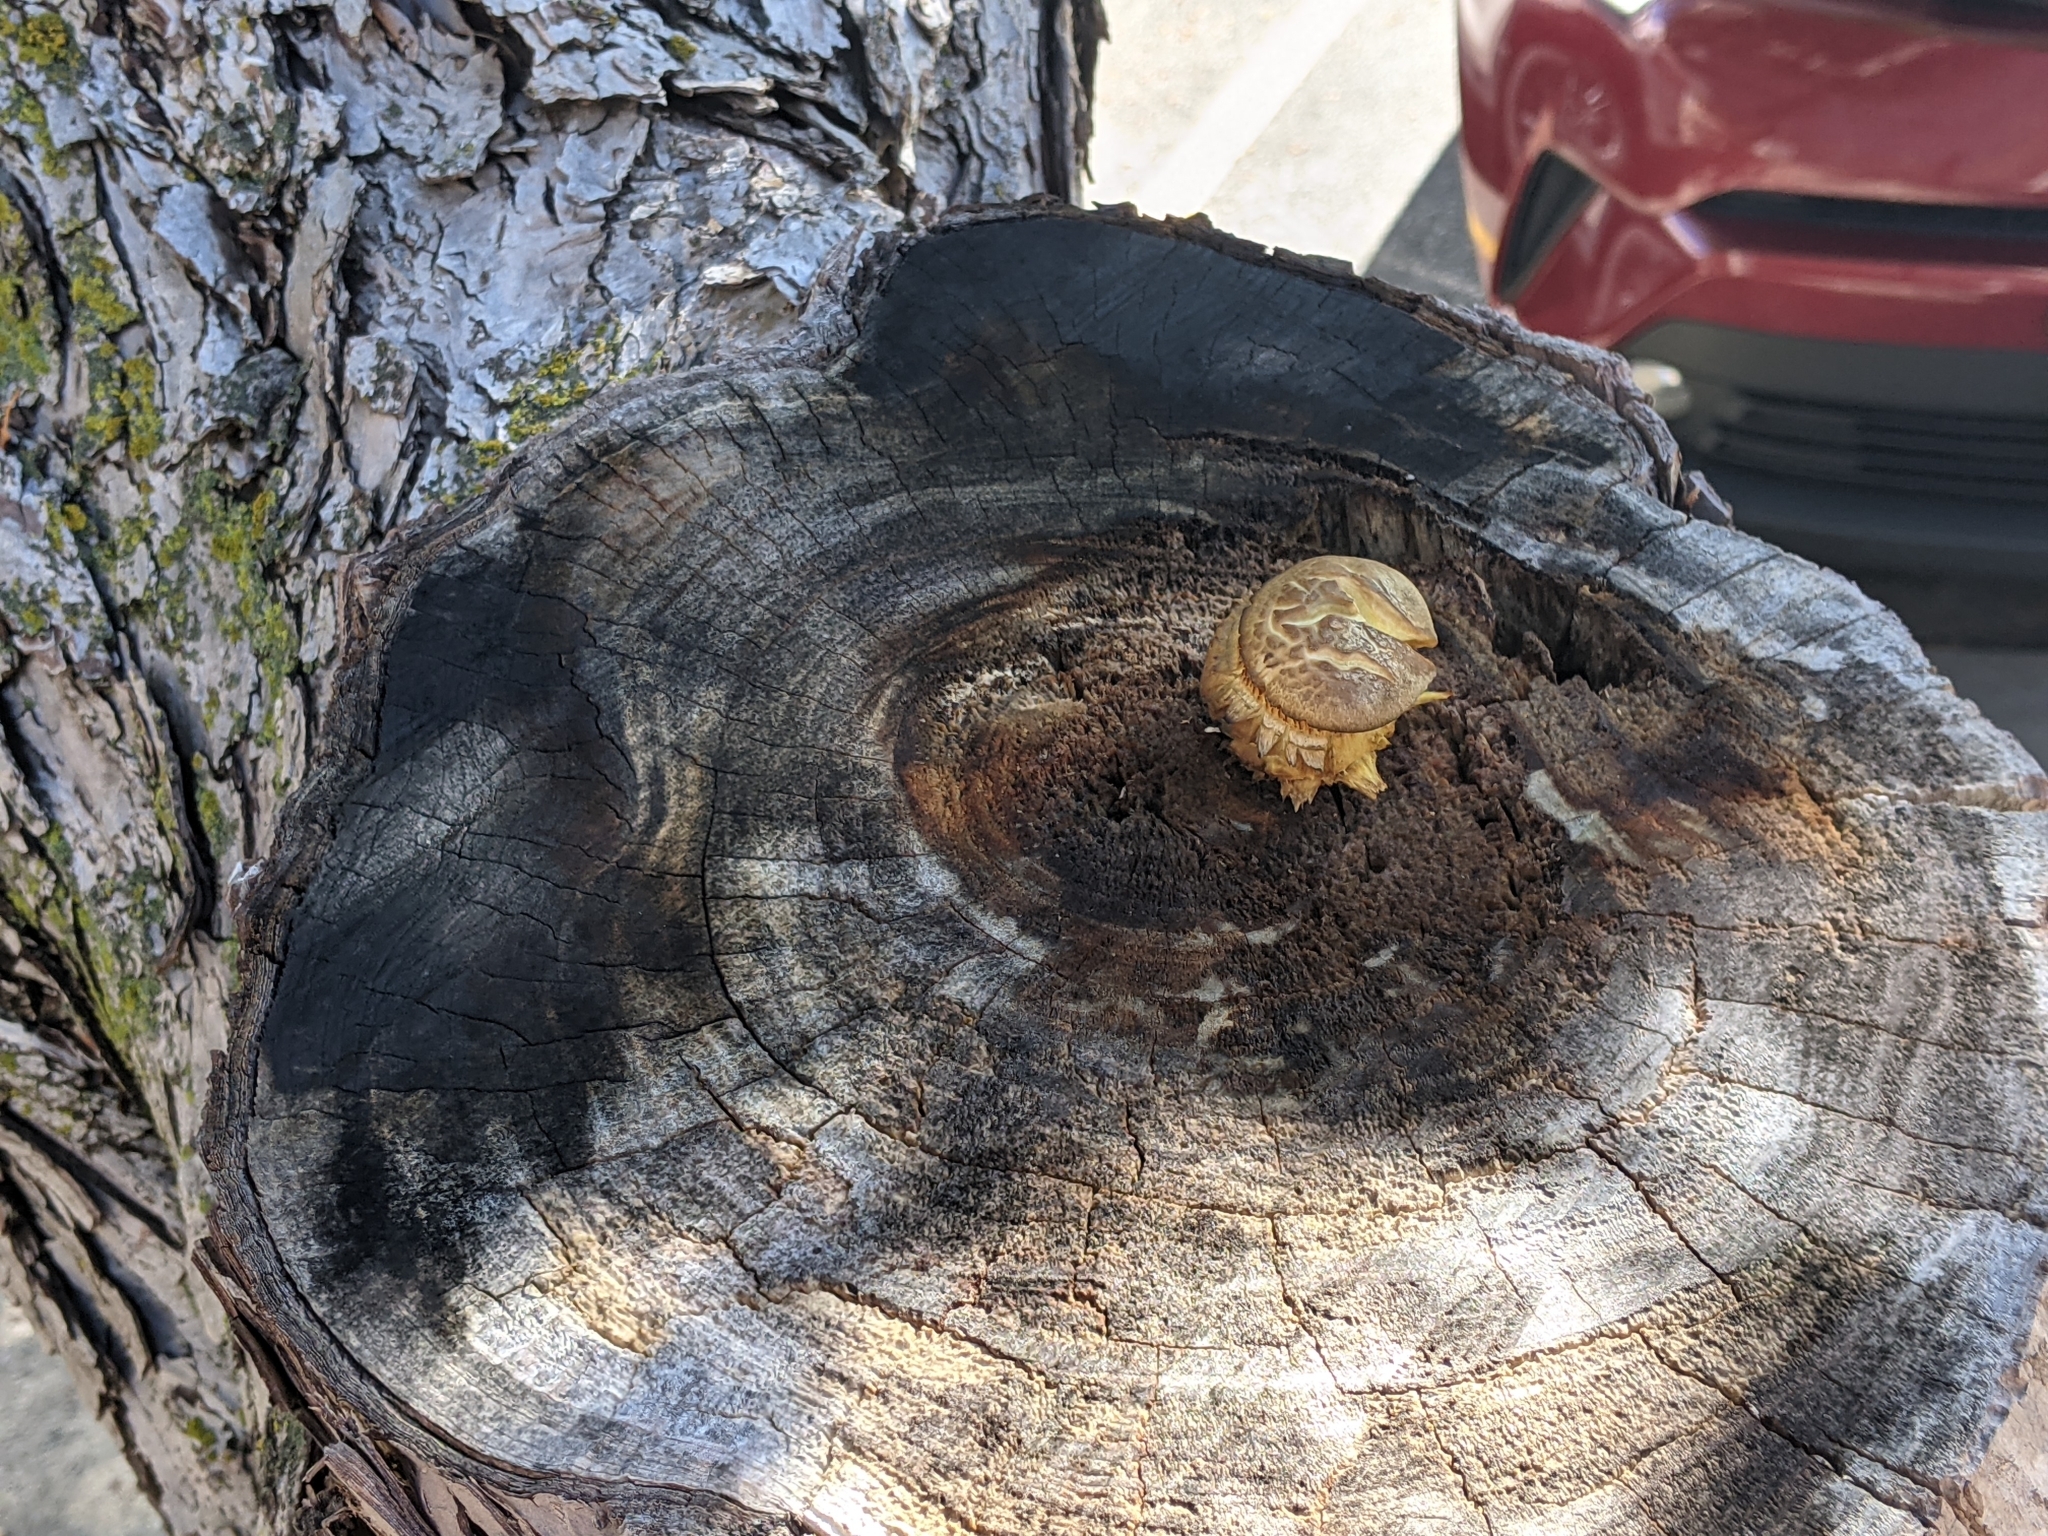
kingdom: Fungi
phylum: Basidiomycota
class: Agaricomycetes
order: Polyporales
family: Polyporaceae
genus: Cerioporus
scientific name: Cerioporus squamosus
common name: Dryad's saddle
